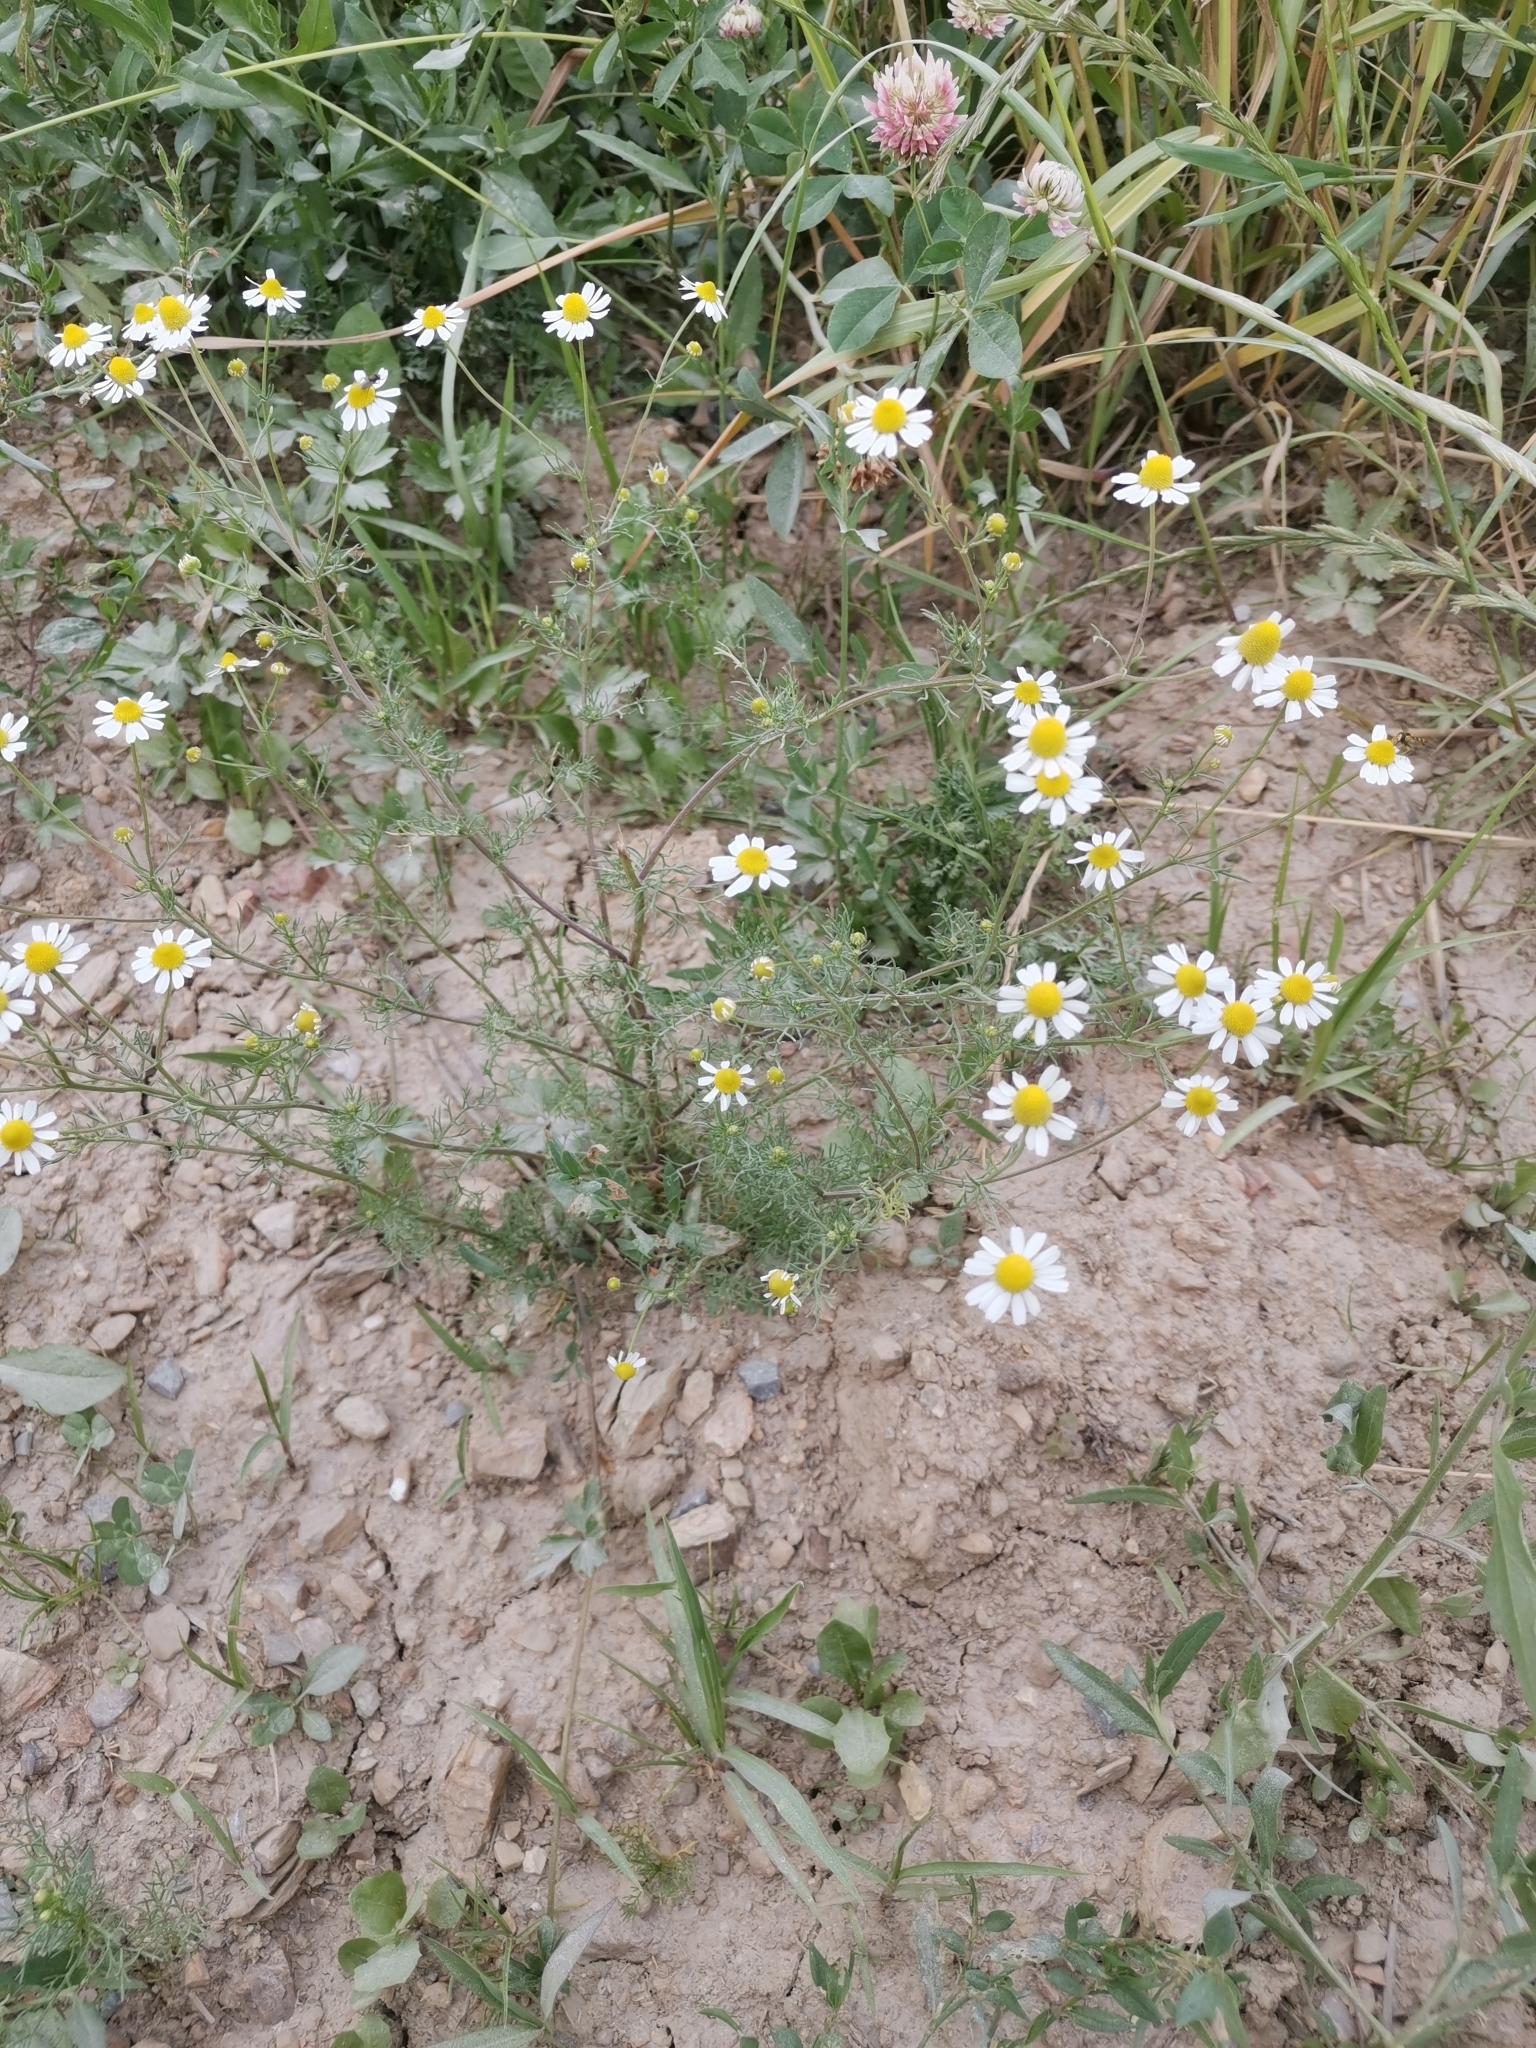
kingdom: Plantae
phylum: Tracheophyta
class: Magnoliopsida
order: Asterales
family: Asteraceae
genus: Matricaria
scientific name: Matricaria chamomilla
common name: Scented mayweed
